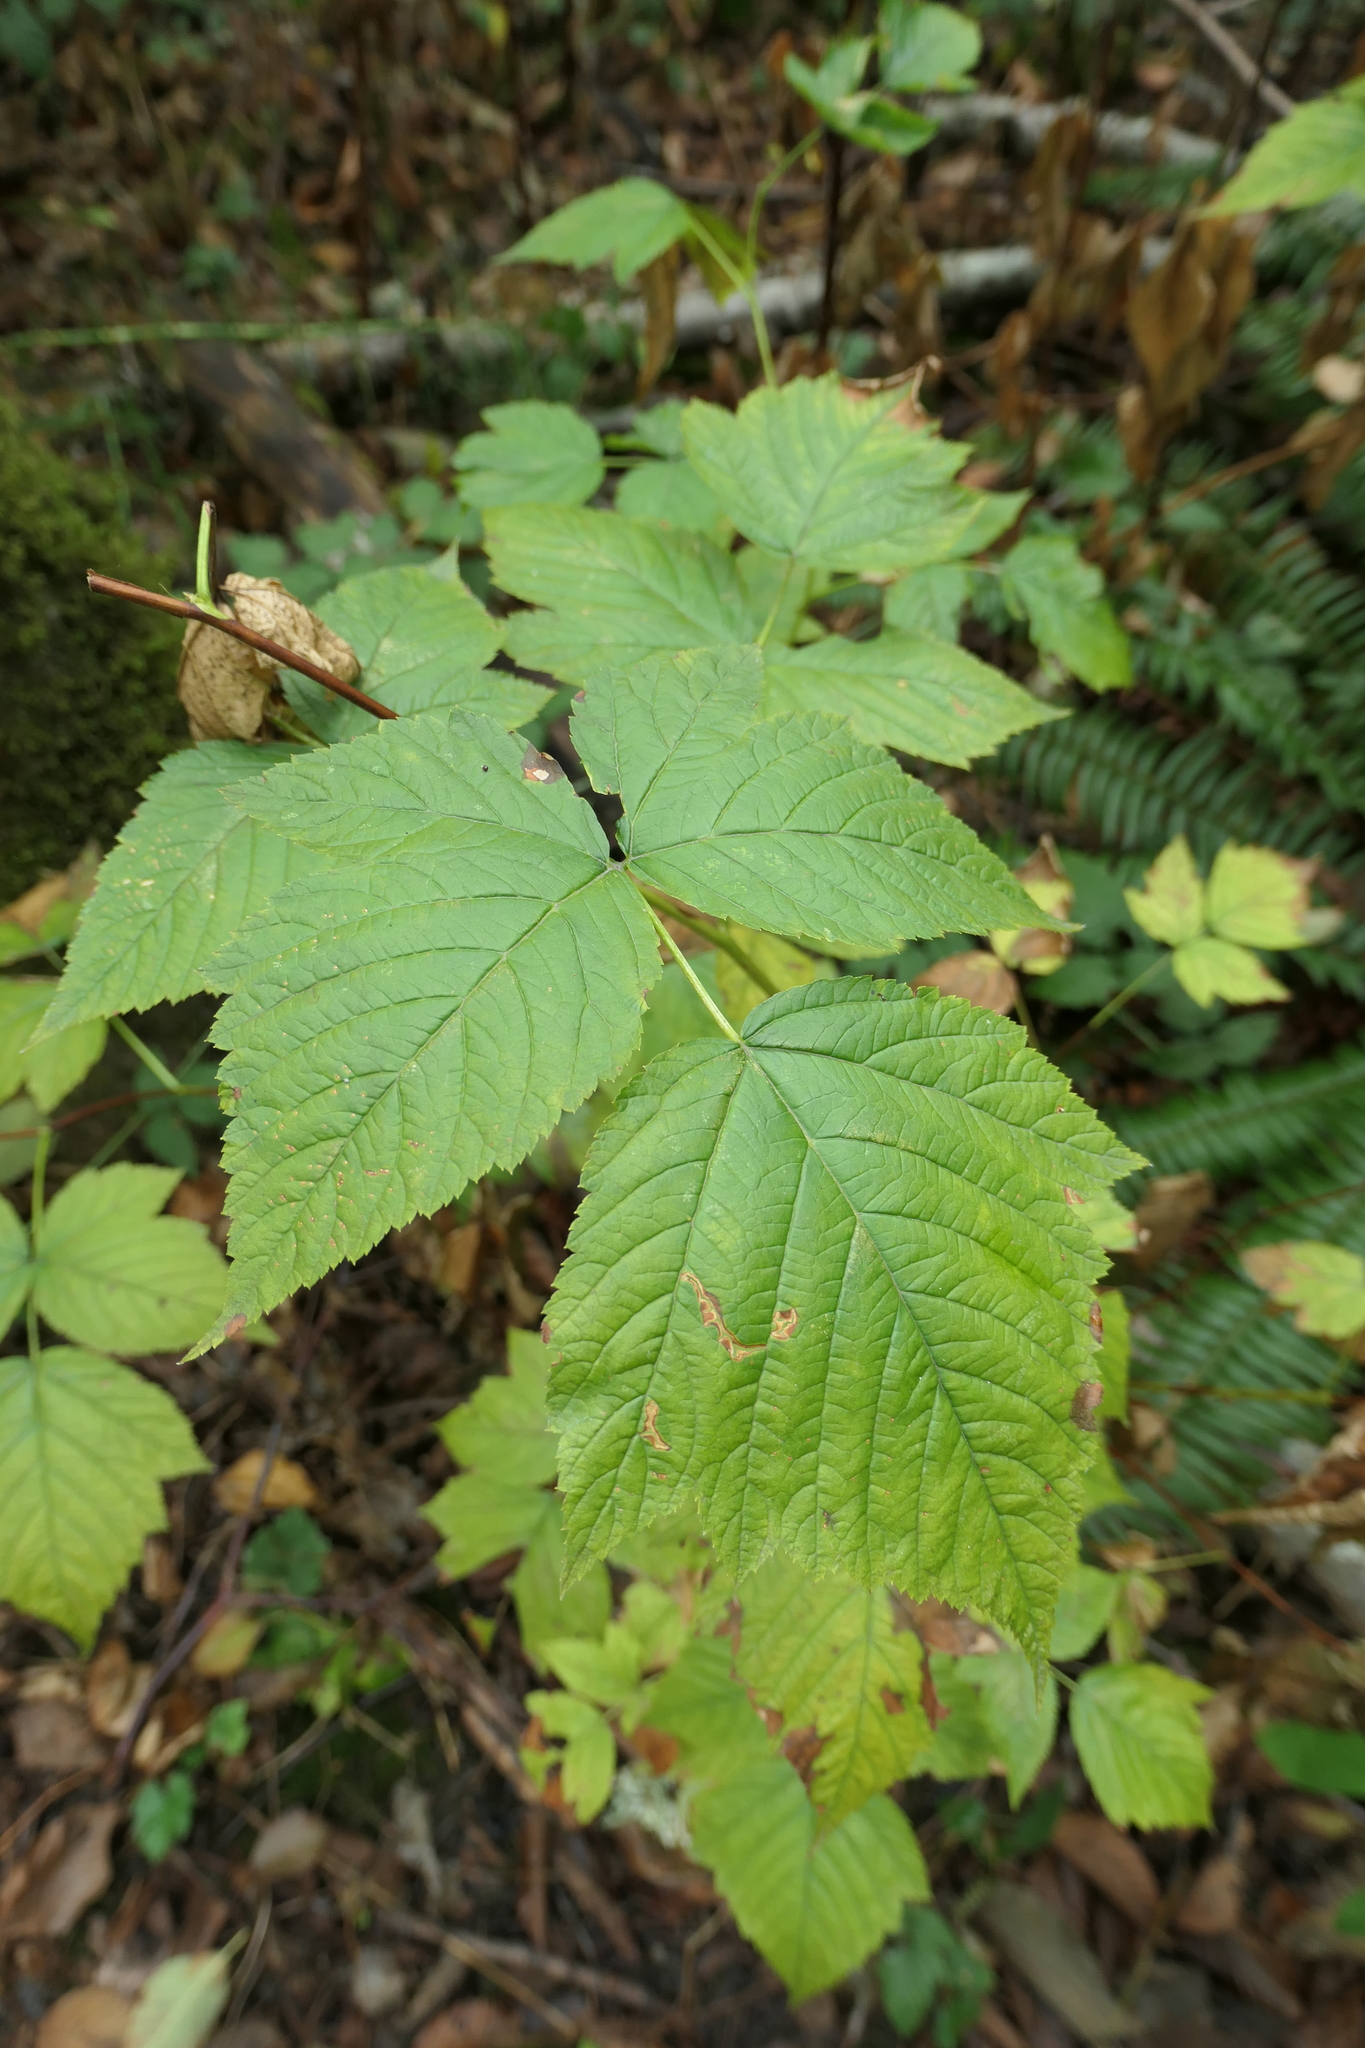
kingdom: Plantae
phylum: Tracheophyta
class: Magnoliopsida
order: Rosales
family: Rosaceae
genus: Rubus
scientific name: Rubus spectabilis
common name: Salmonberry
